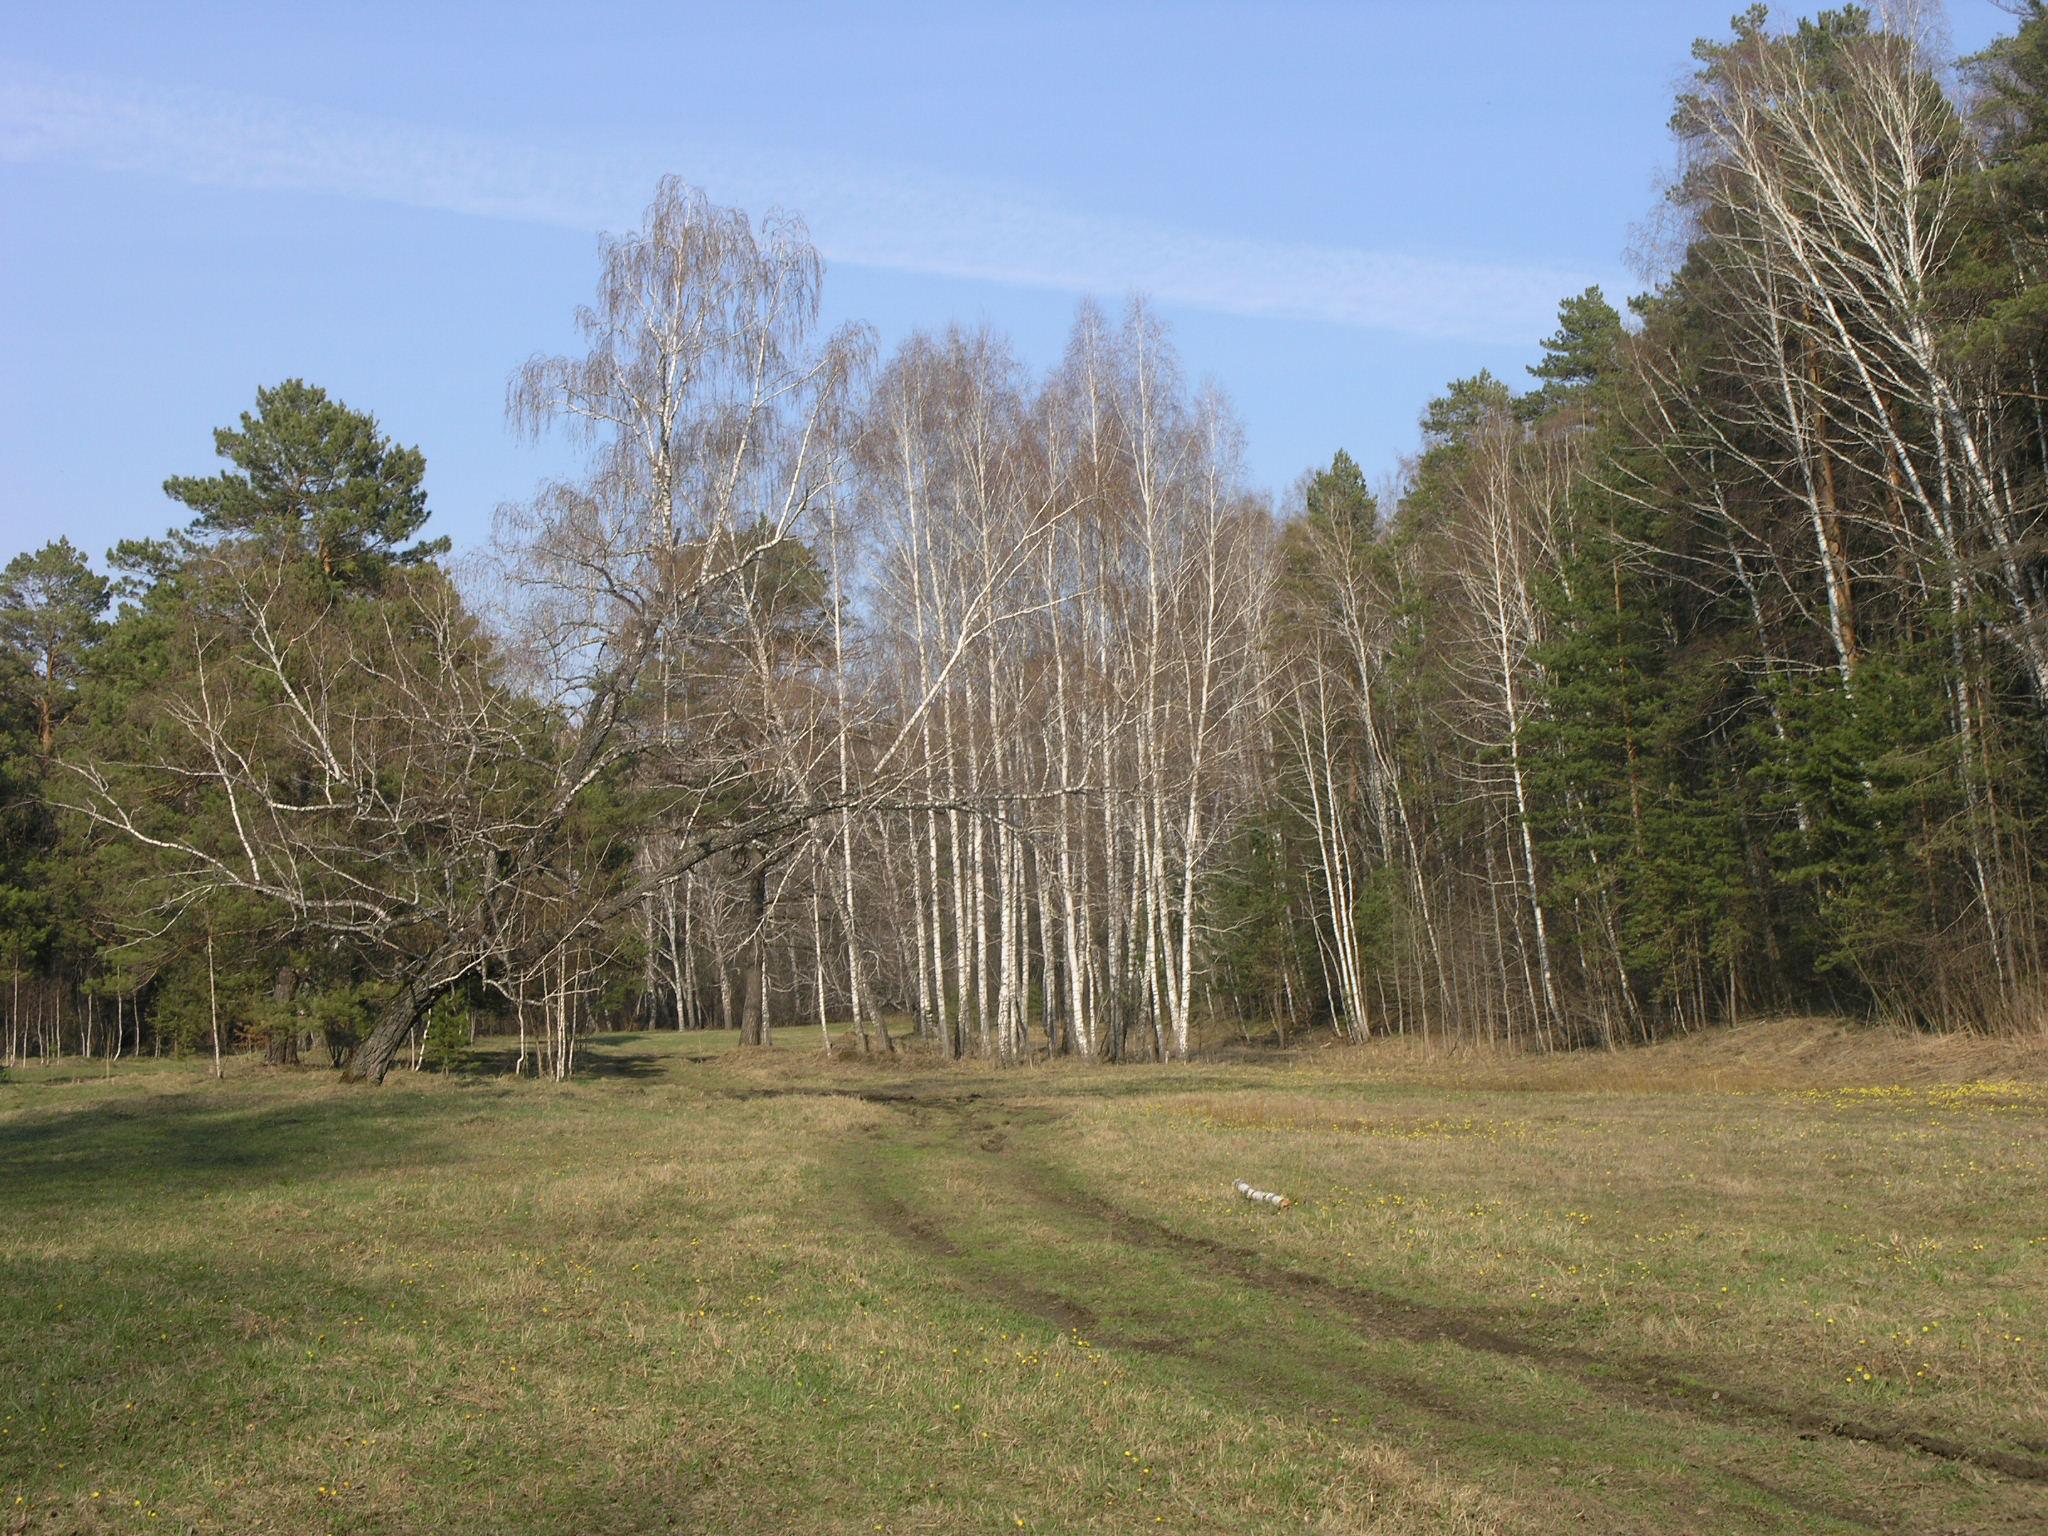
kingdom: Plantae
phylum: Tracheophyta
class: Magnoliopsida
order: Fagales
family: Betulaceae
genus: Betula
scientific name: Betula pendula
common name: Silver birch
